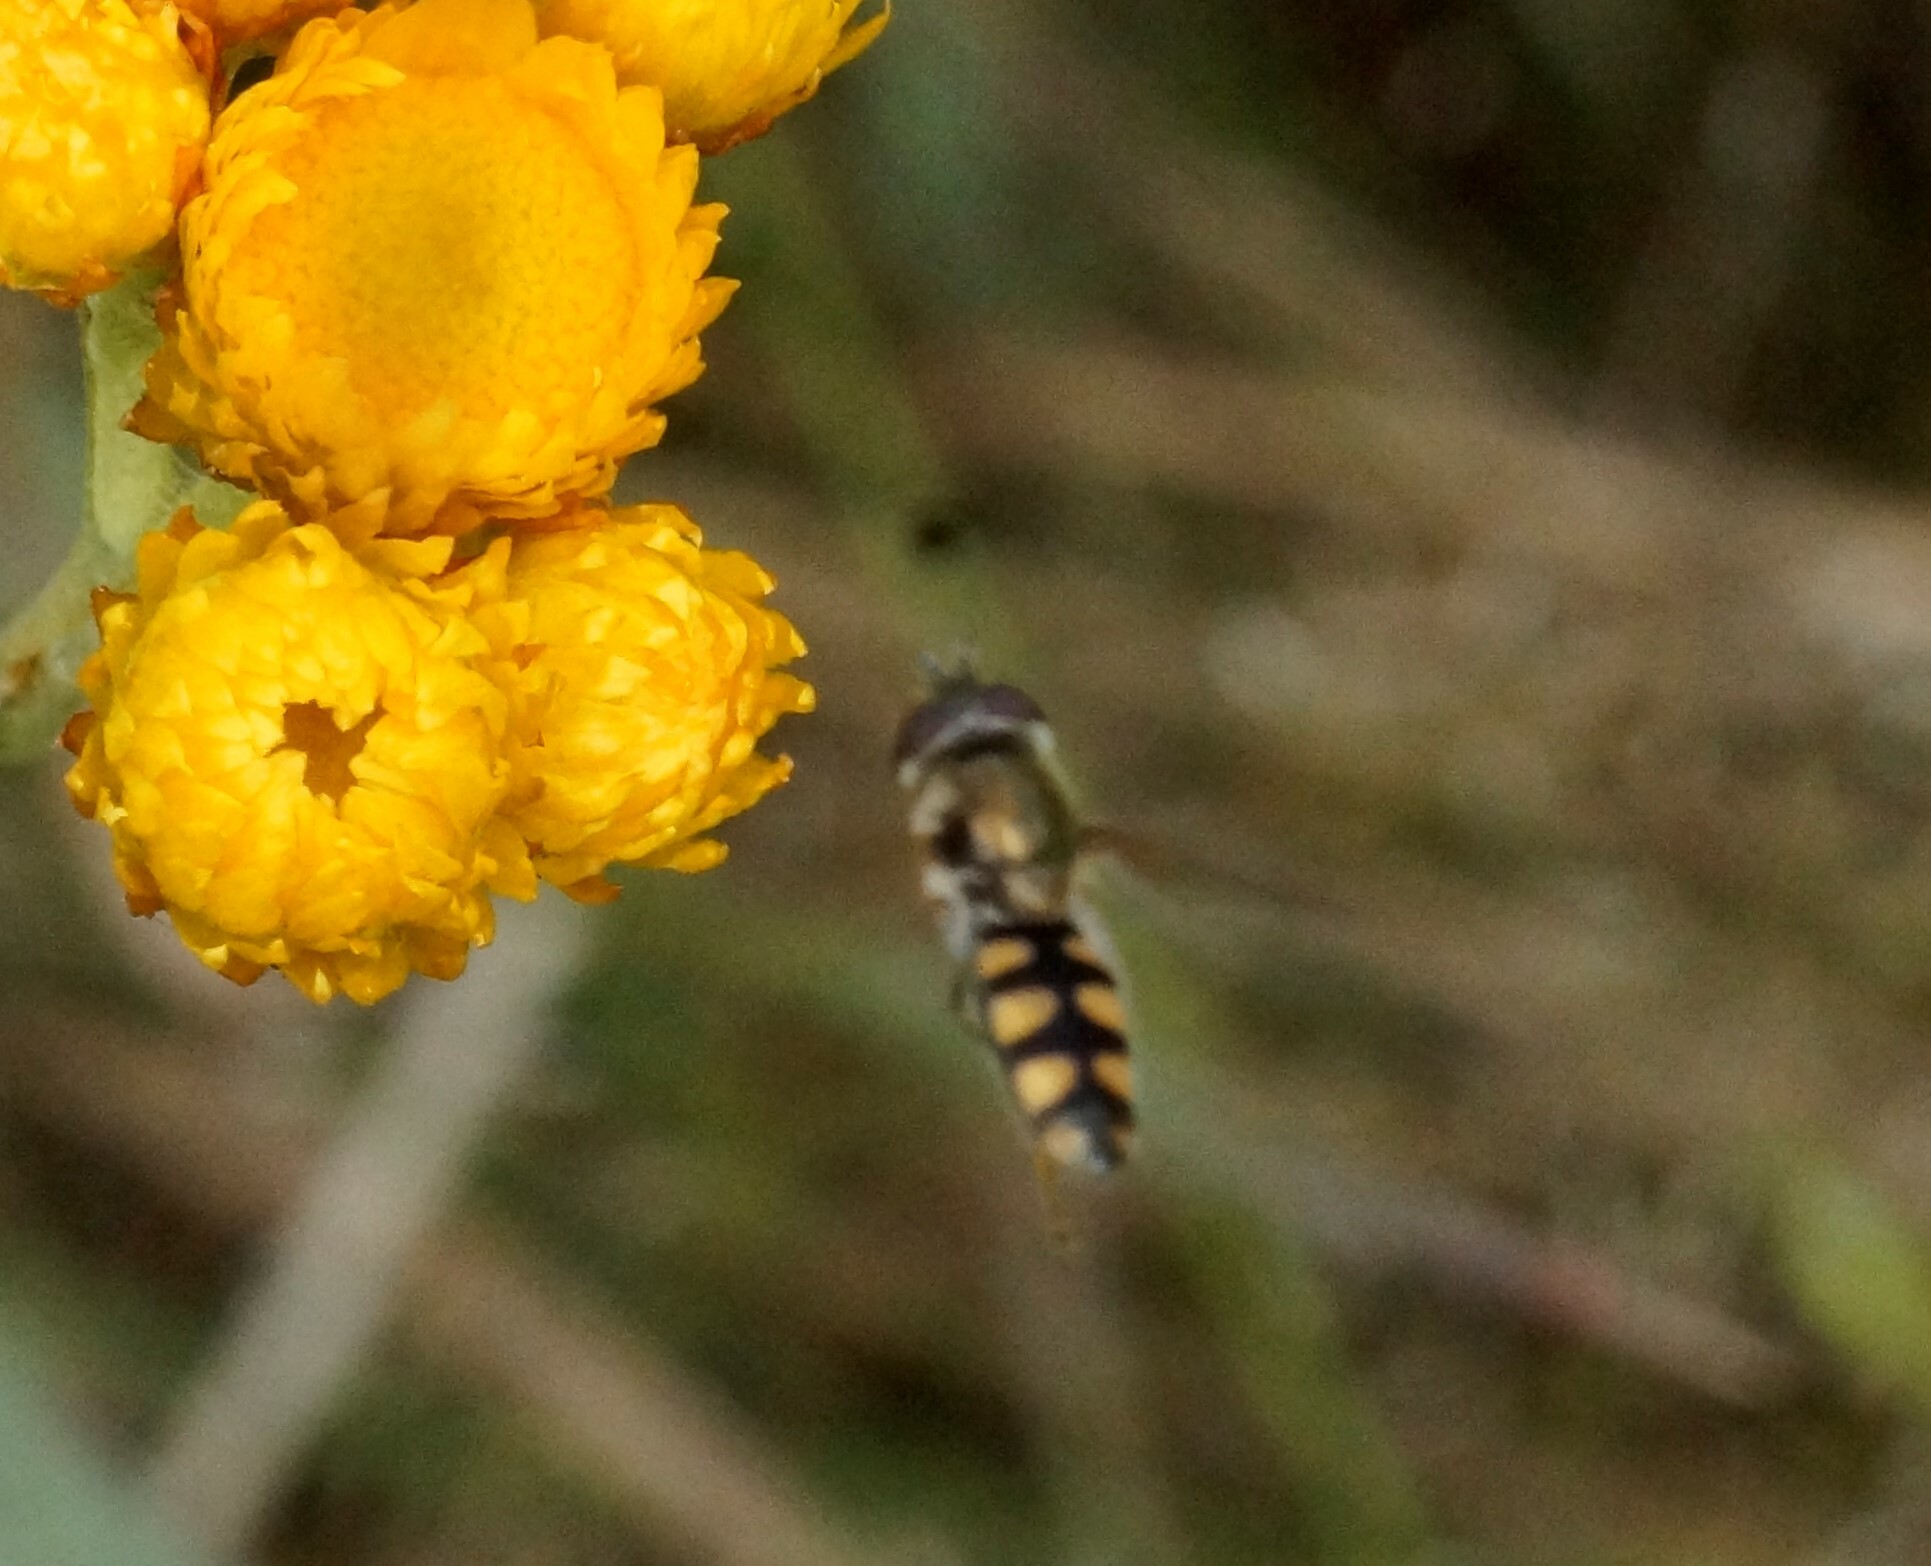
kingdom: Animalia
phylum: Arthropoda
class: Insecta
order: Diptera
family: Syrphidae
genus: Melangyna
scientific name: Melangyna viridiceps
